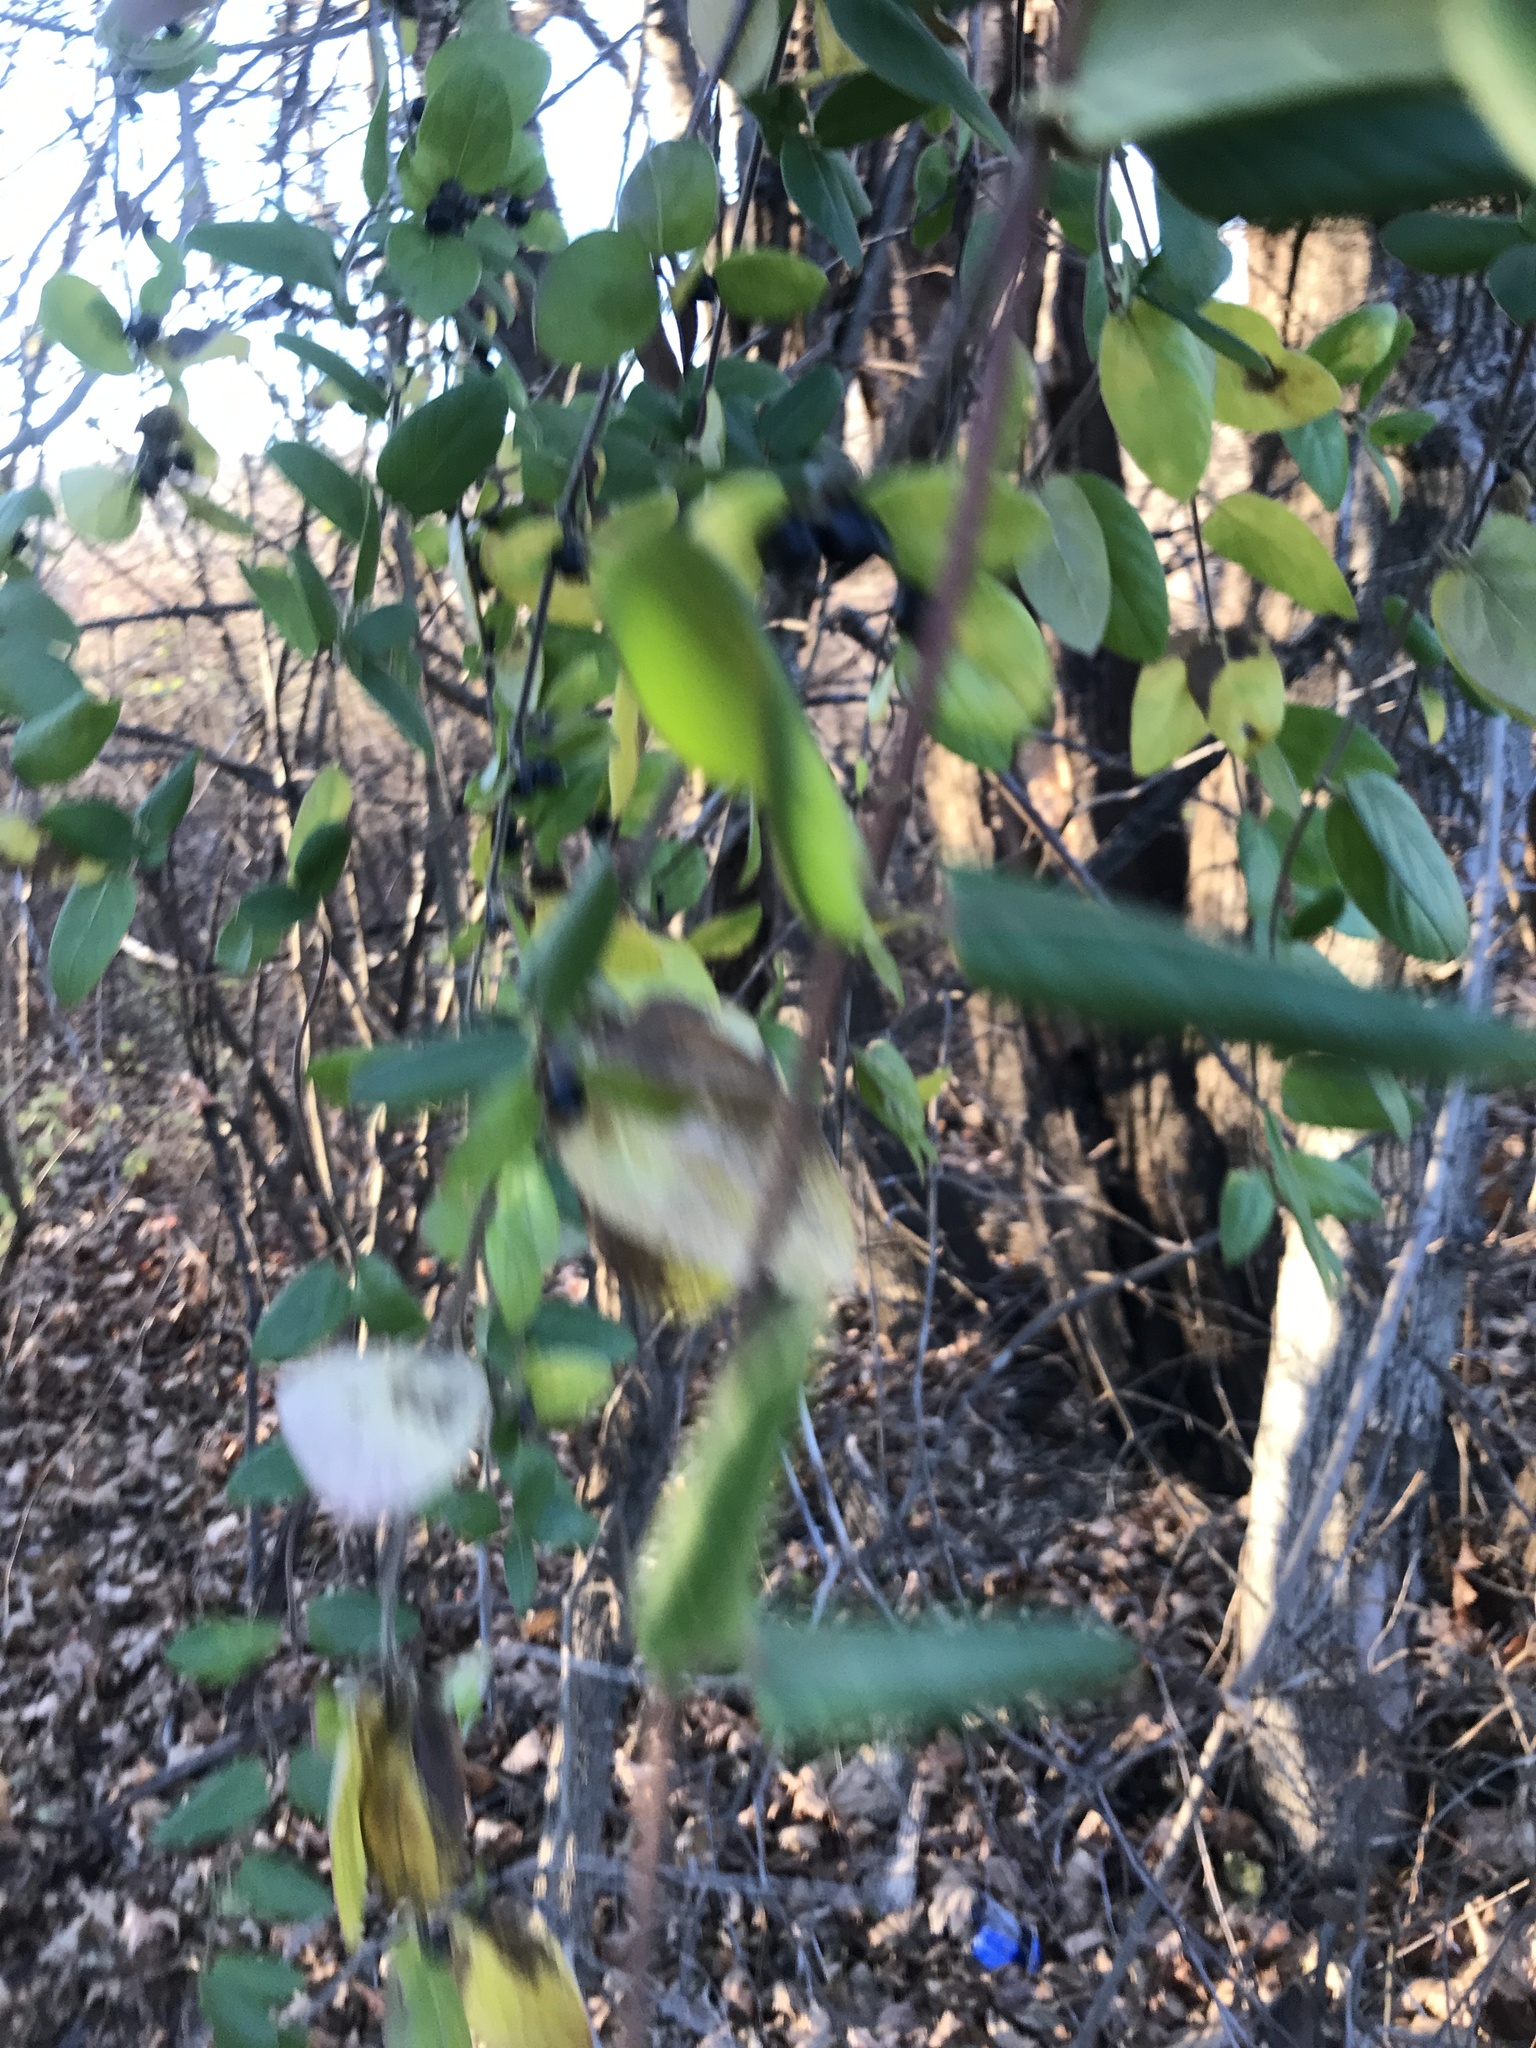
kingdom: Plantae
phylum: Tracheophyta
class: Magnoliopsida
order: Dipsacales
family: Caprifoliaceae
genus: Lonicera
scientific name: Lonicera japonica
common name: Japanese honeysuckle
